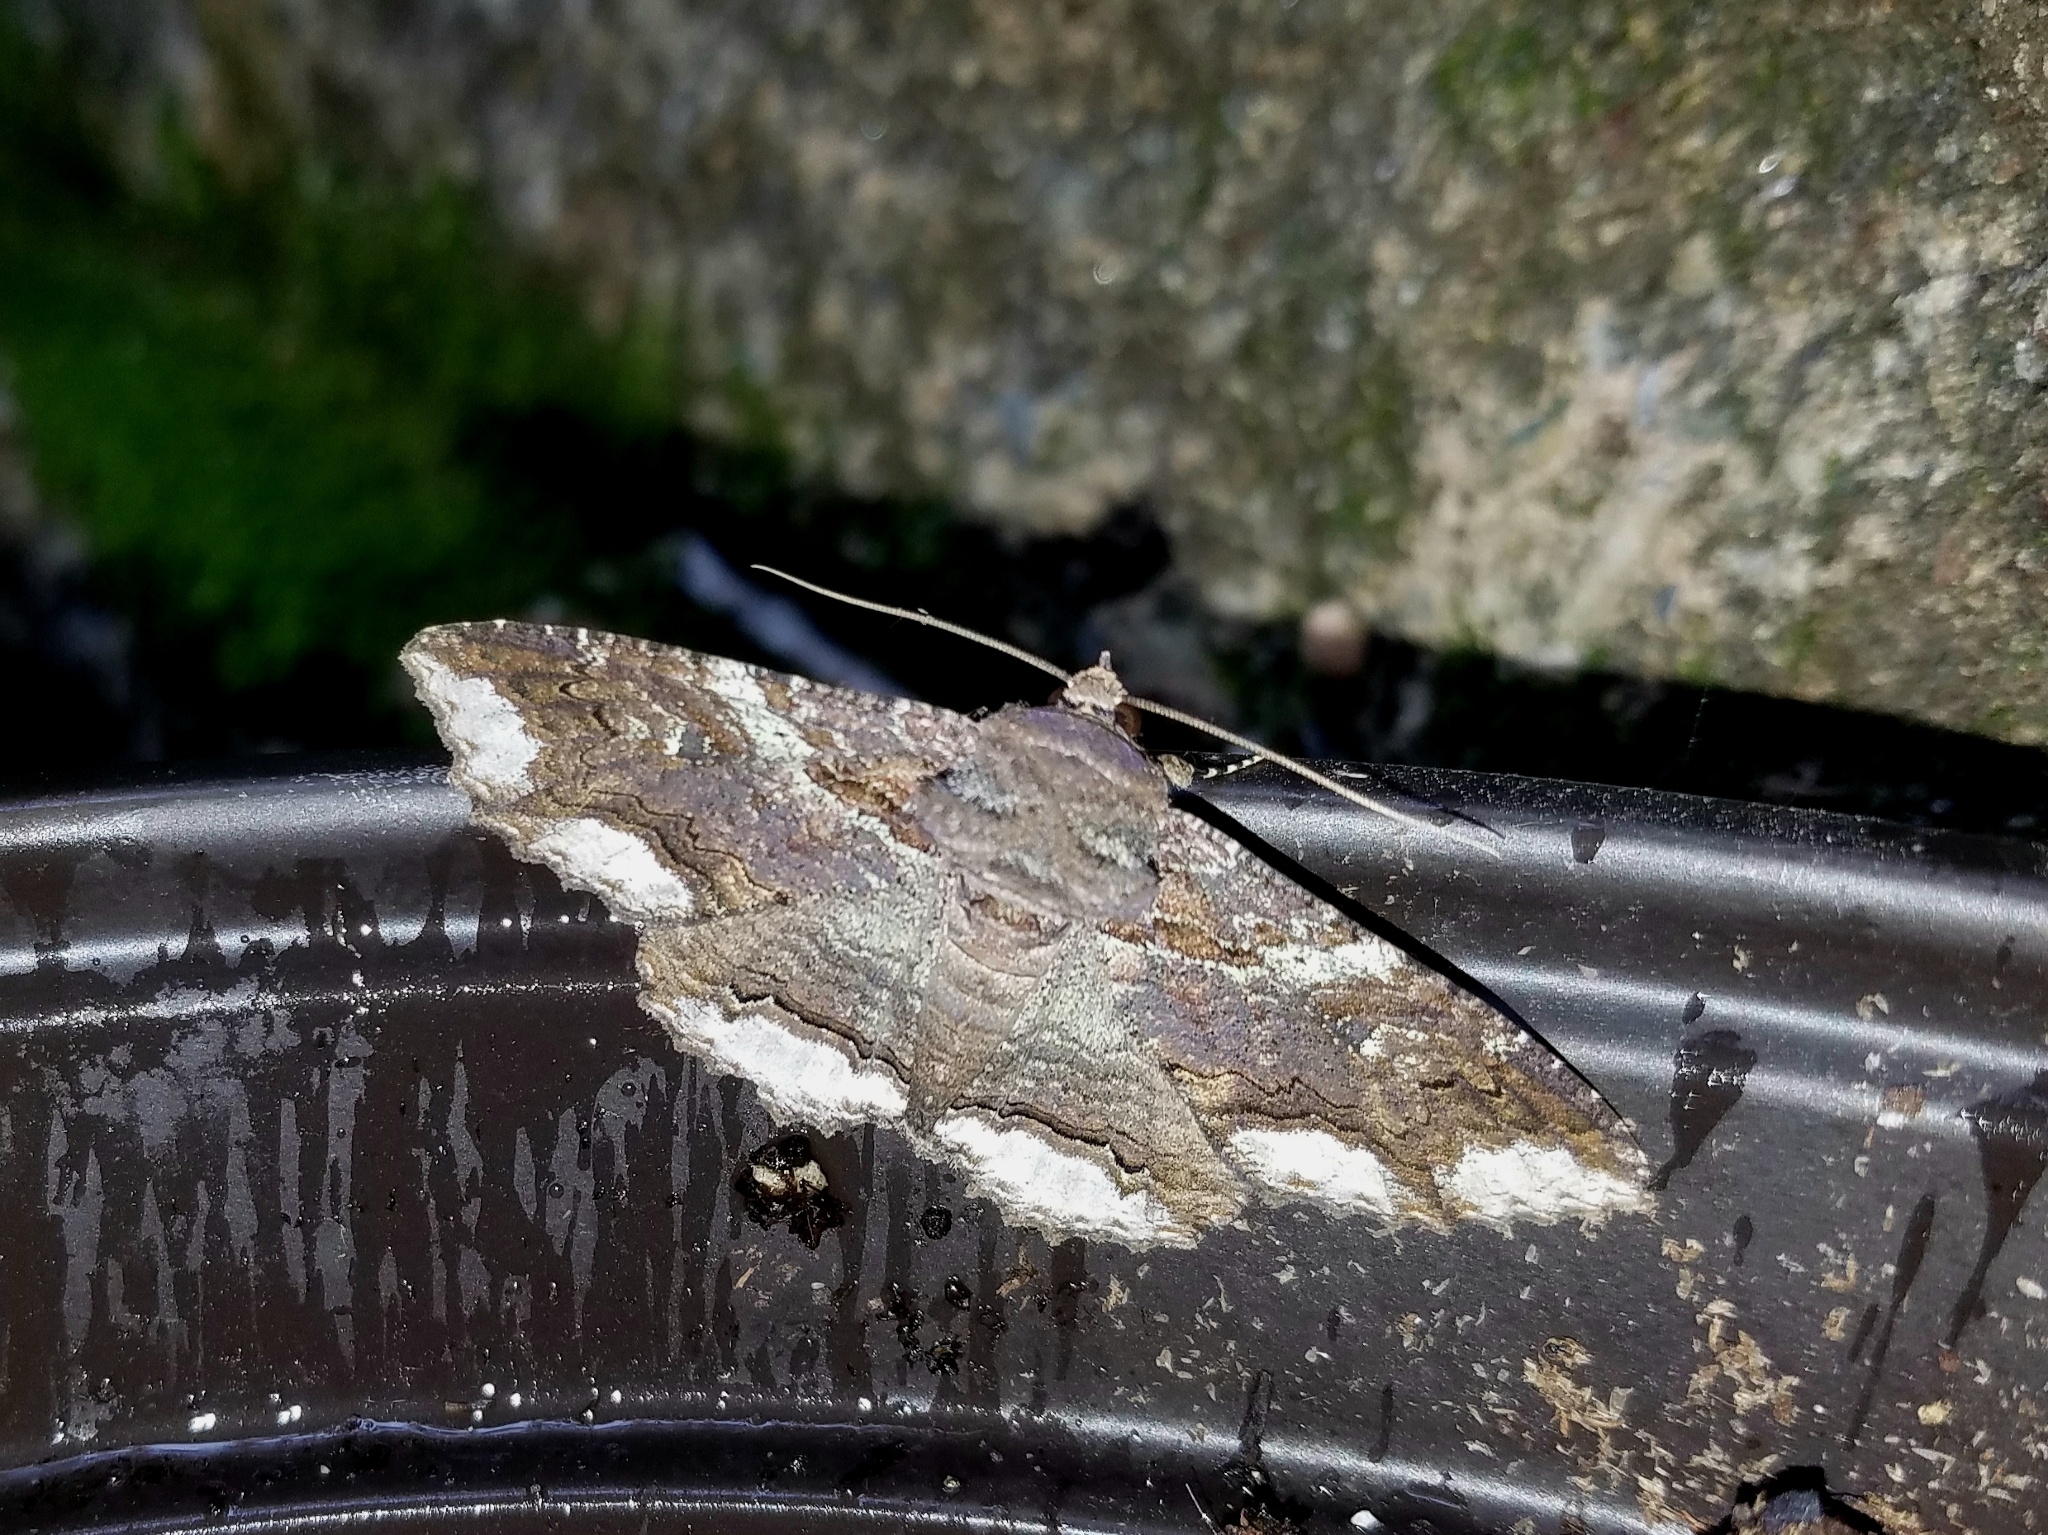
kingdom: Animalia
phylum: Arthropoda
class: Insecta
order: Lepidoptera
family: Erebidae
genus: Zale
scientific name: Zale lunata
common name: Lunate zale moth
